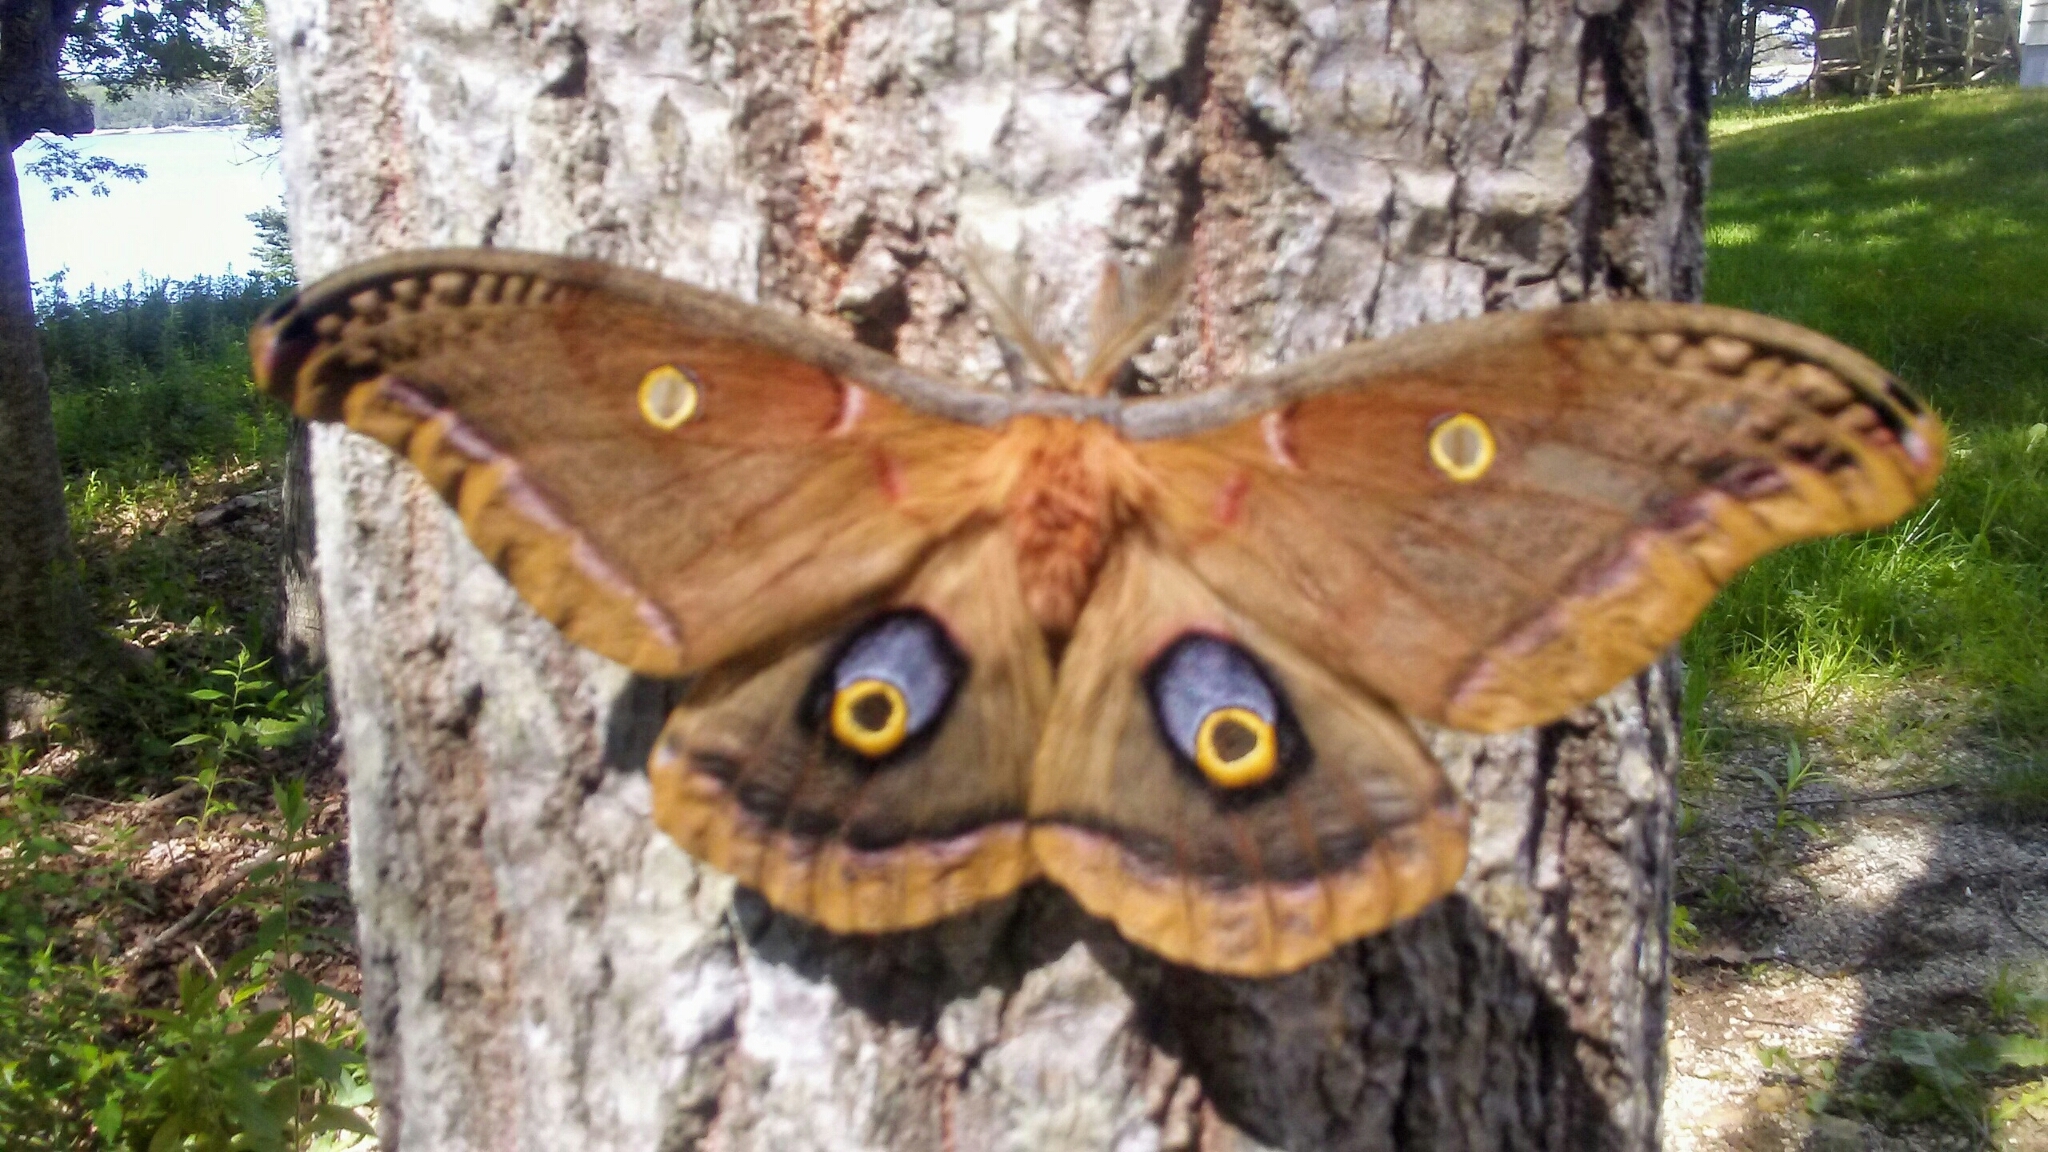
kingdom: Animalia
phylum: Arthropoda
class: Insecta
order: Lepidoptera
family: Saturniidae
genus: Antheraea
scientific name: Antheraea polyphemus
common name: Polyphemus moth
